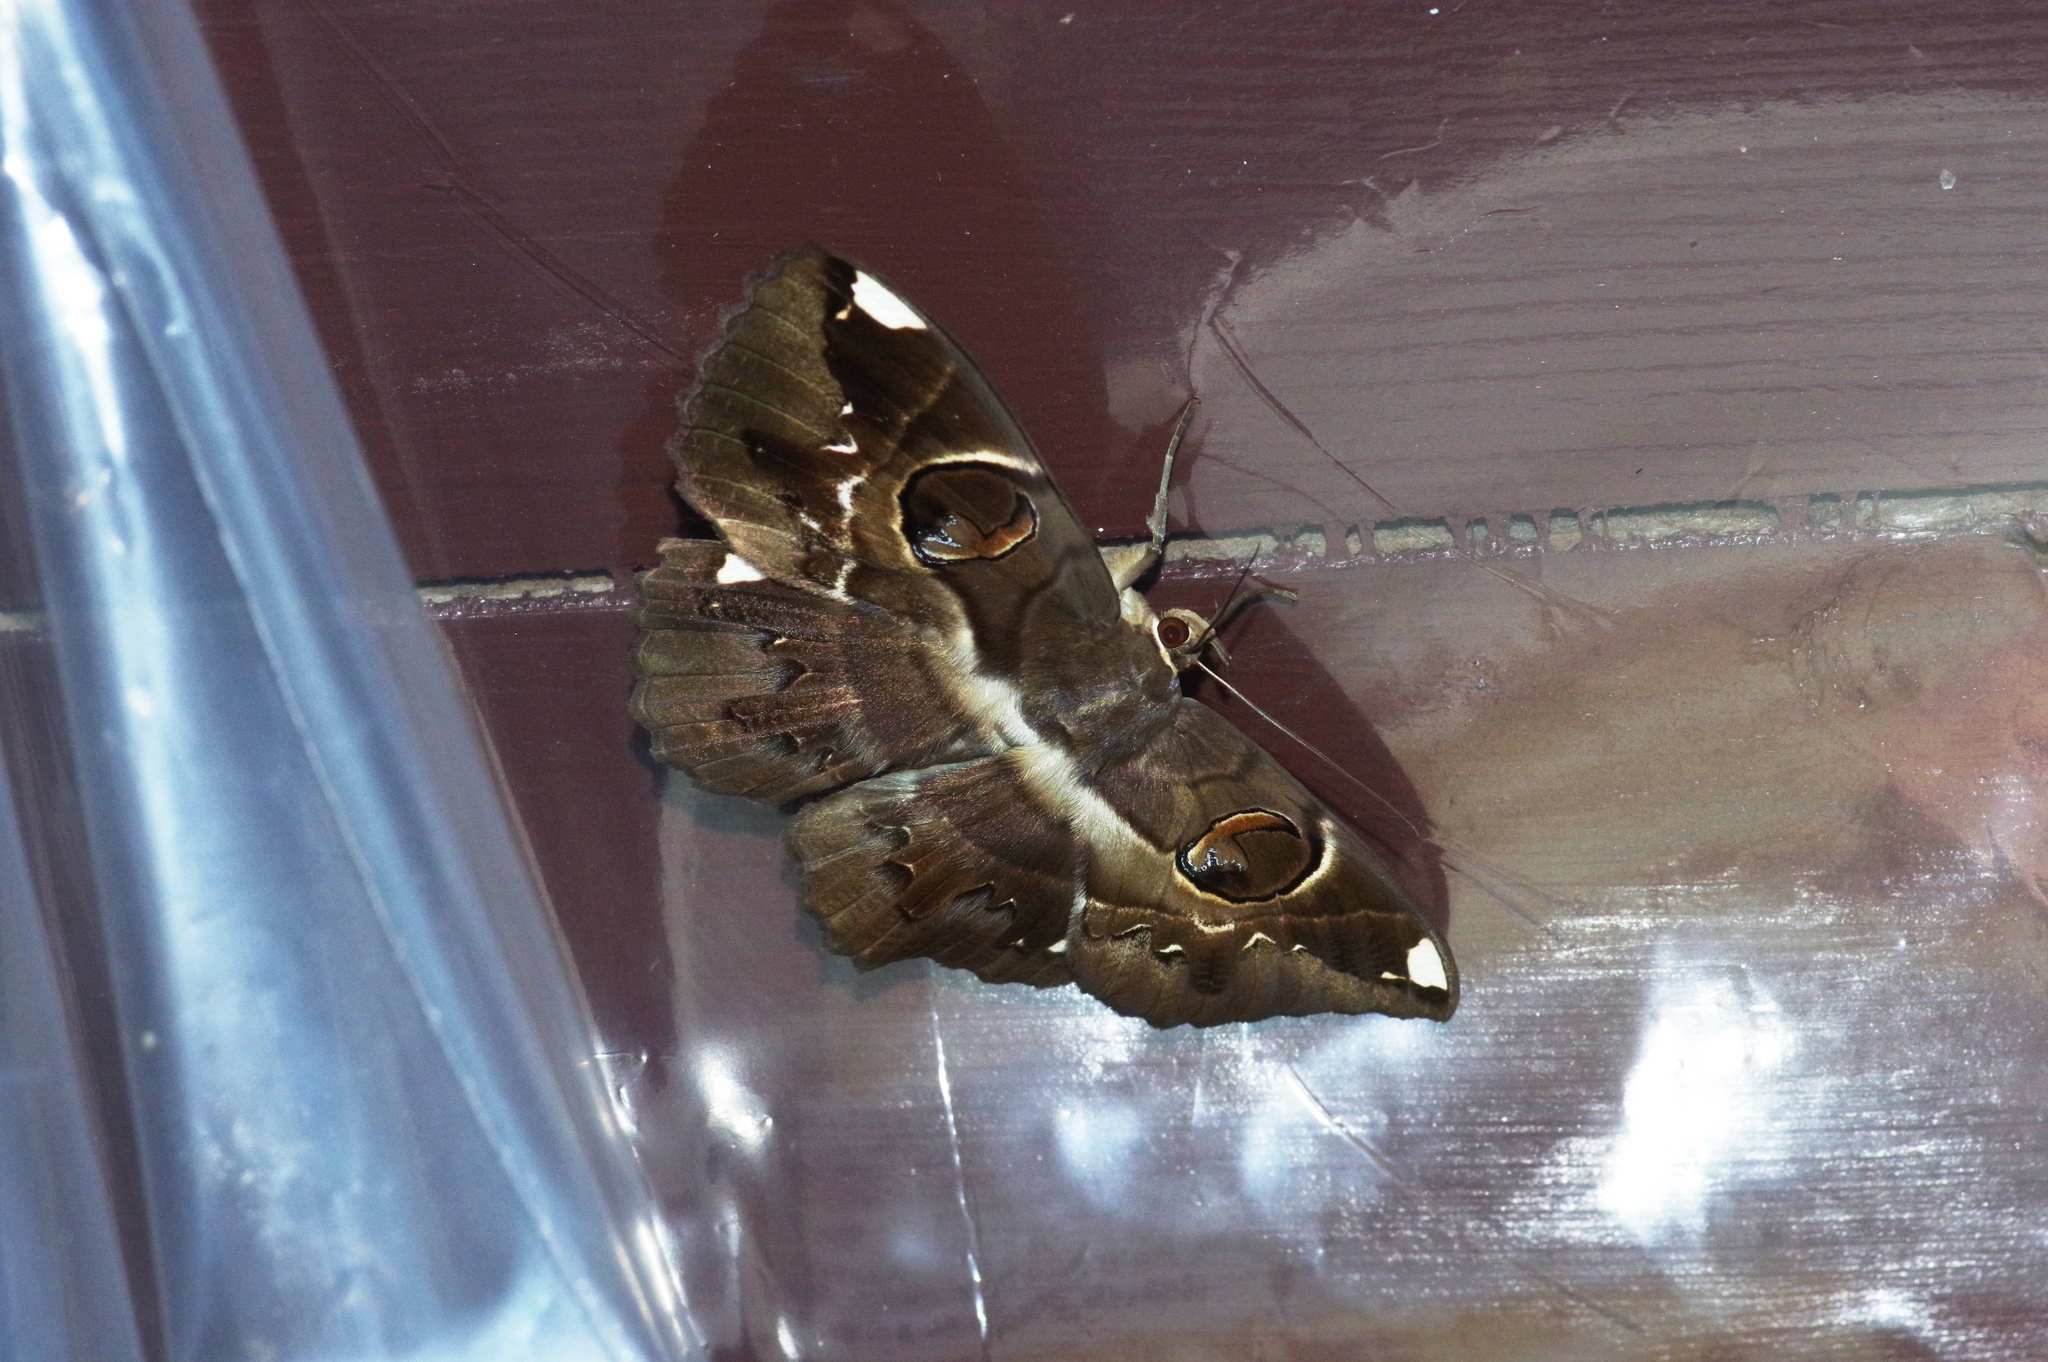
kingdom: Animalia
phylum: Arthropoda
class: Insecta
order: Lepidoptera
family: Erebidae
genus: Erebus
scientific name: Erebus ephesperis
